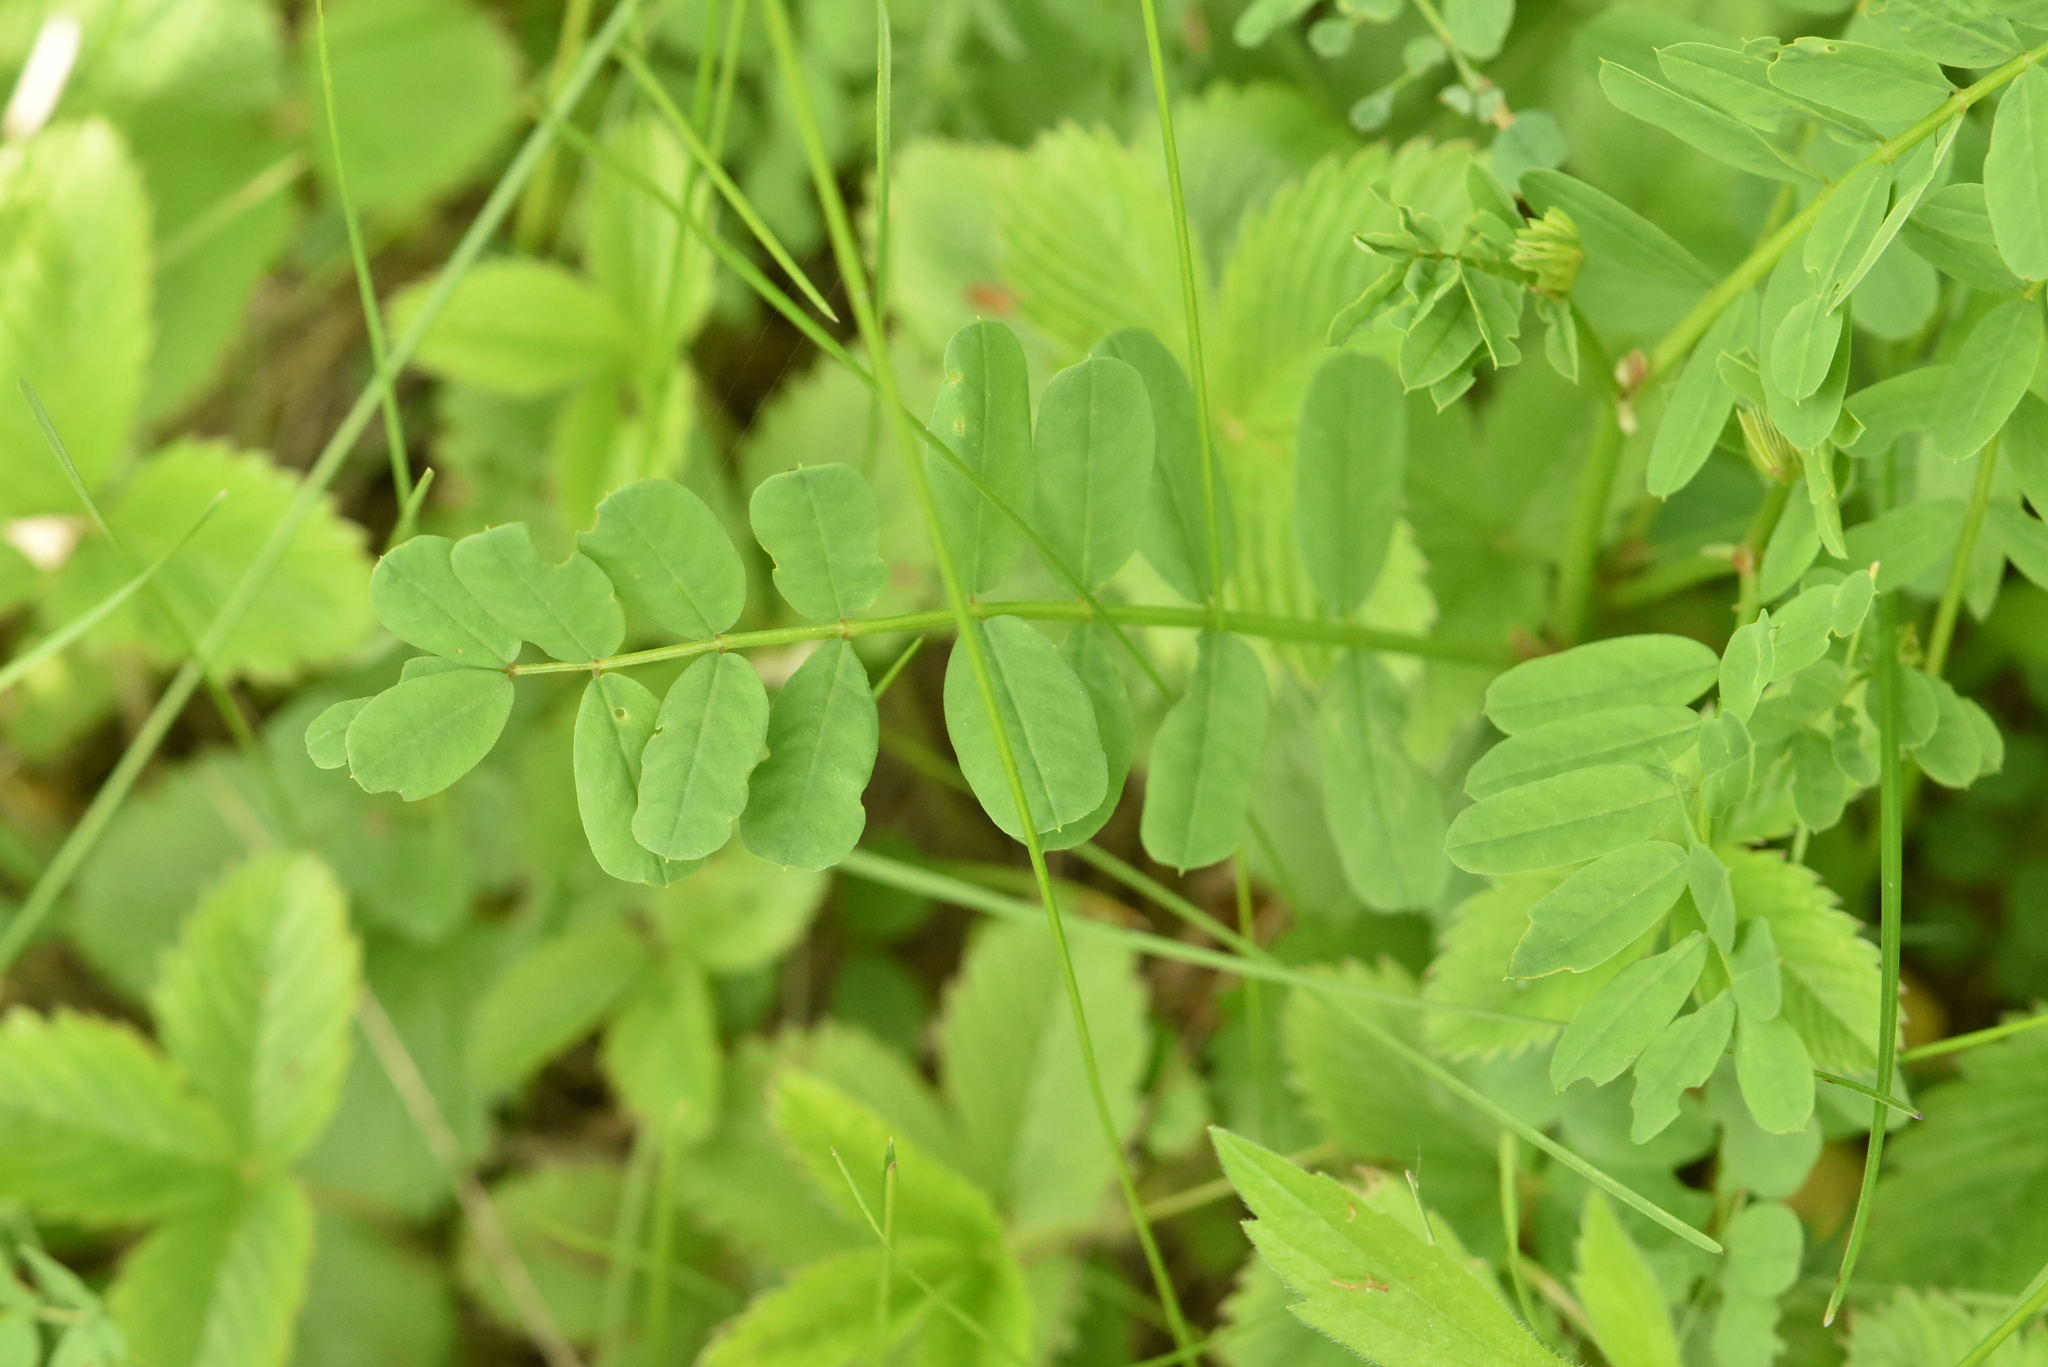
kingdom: Plantae
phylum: Tracheophyta
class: Magnoliopsida
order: Fabales
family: Fabaceae
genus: Coronilla
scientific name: Coronilla varia
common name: Crownvetch
